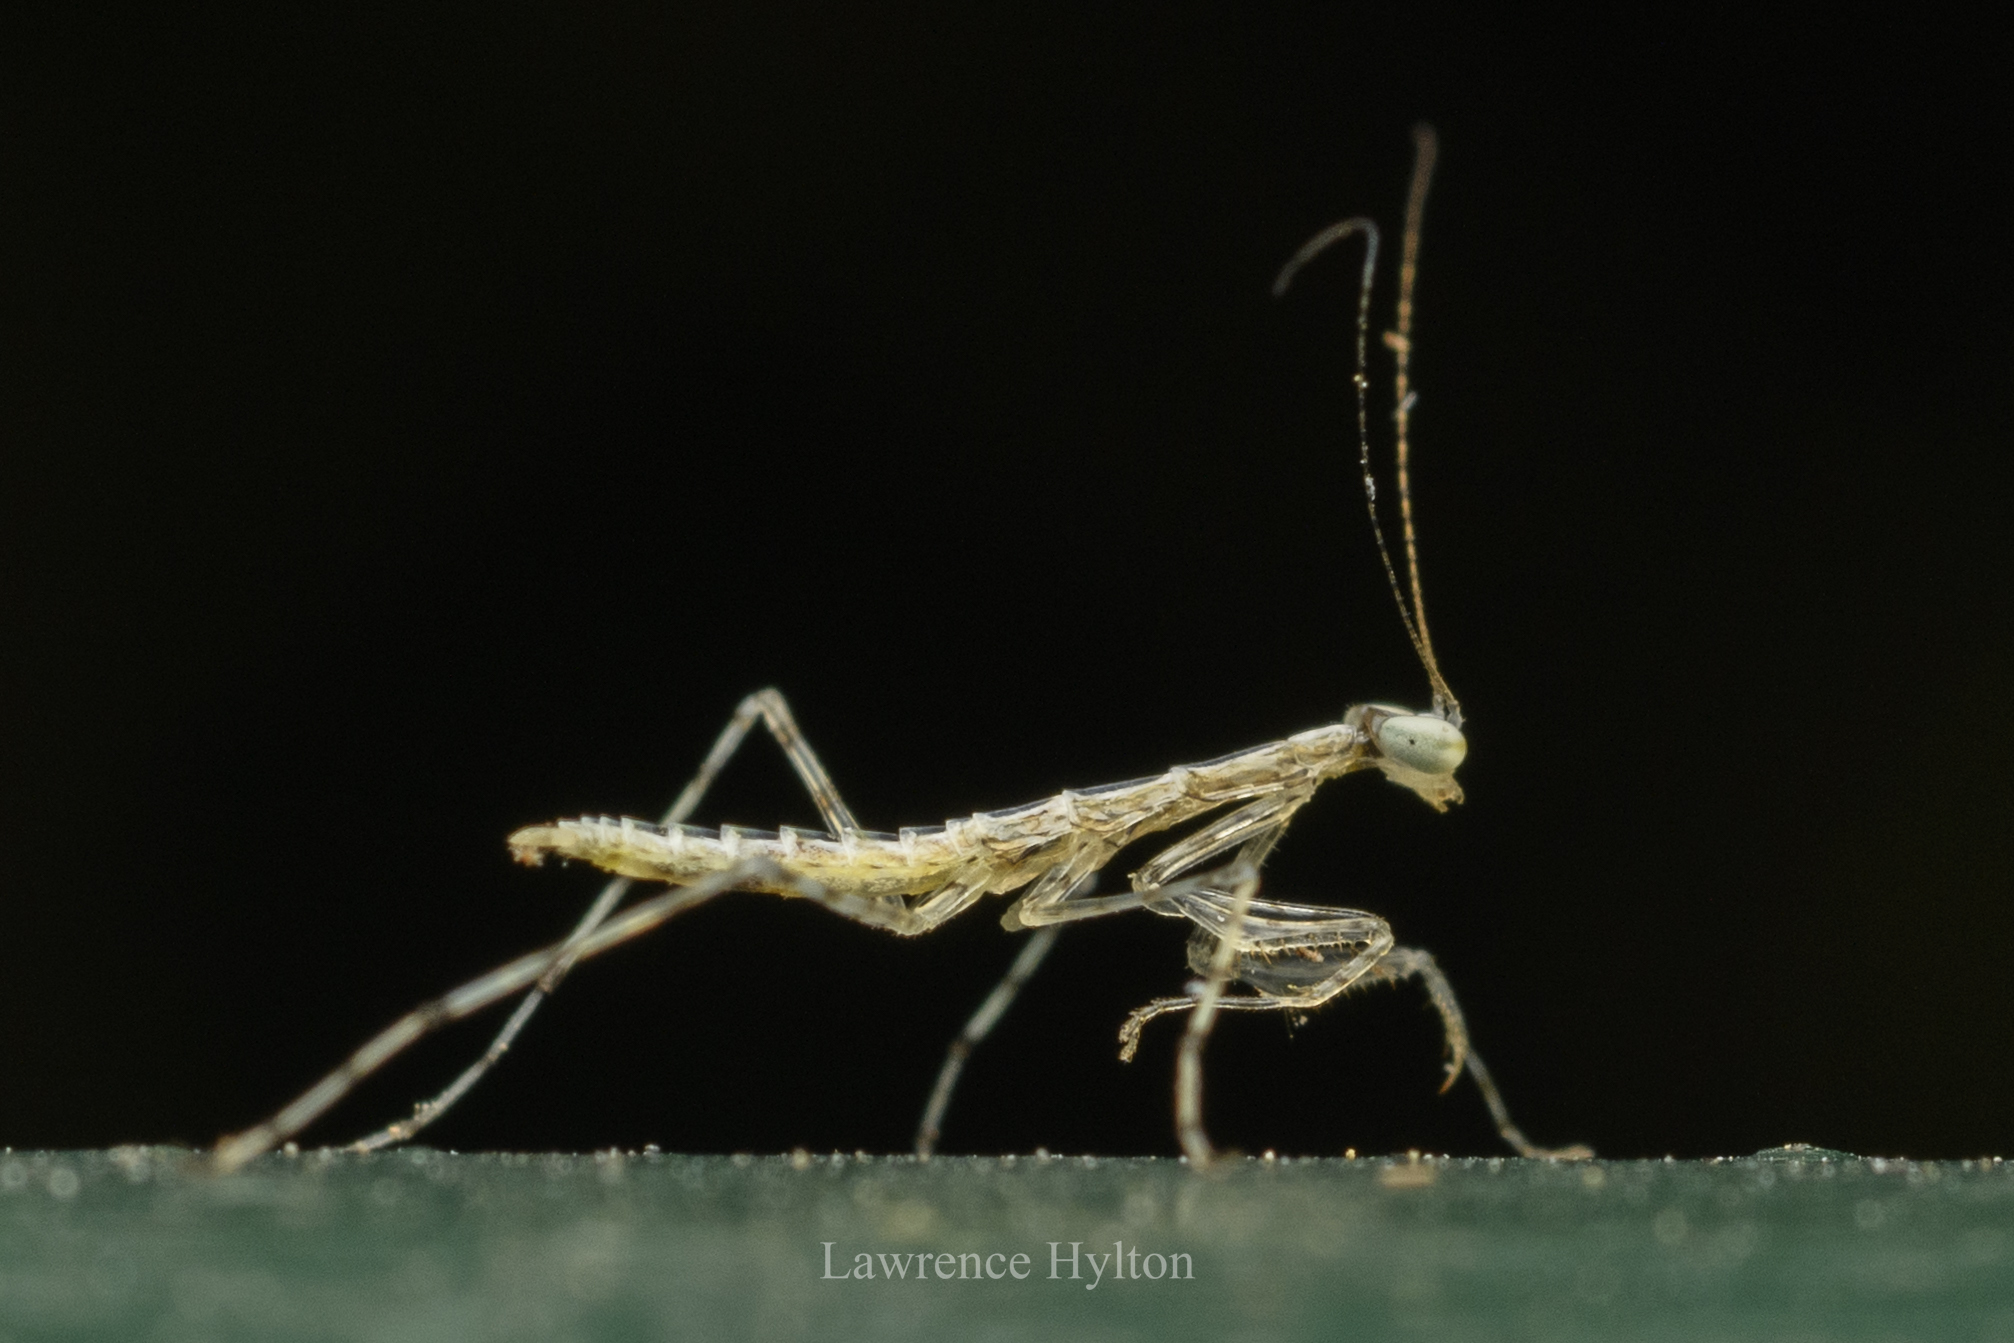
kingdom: Animalia
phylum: Arthropoda
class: Insecta
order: Mantodea
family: Nanomantidae
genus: Tropidomantis
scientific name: Tropidomantis gressitti
